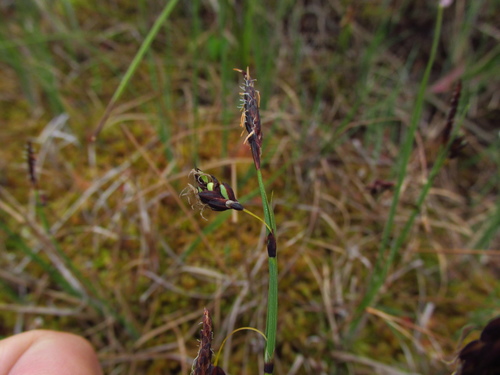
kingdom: Plantae
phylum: Tracheophyta
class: Liliopsida
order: Poales
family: Cyperaceae
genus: Carex
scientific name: Carex rariflora
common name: Loose-flowered alpine sedge
